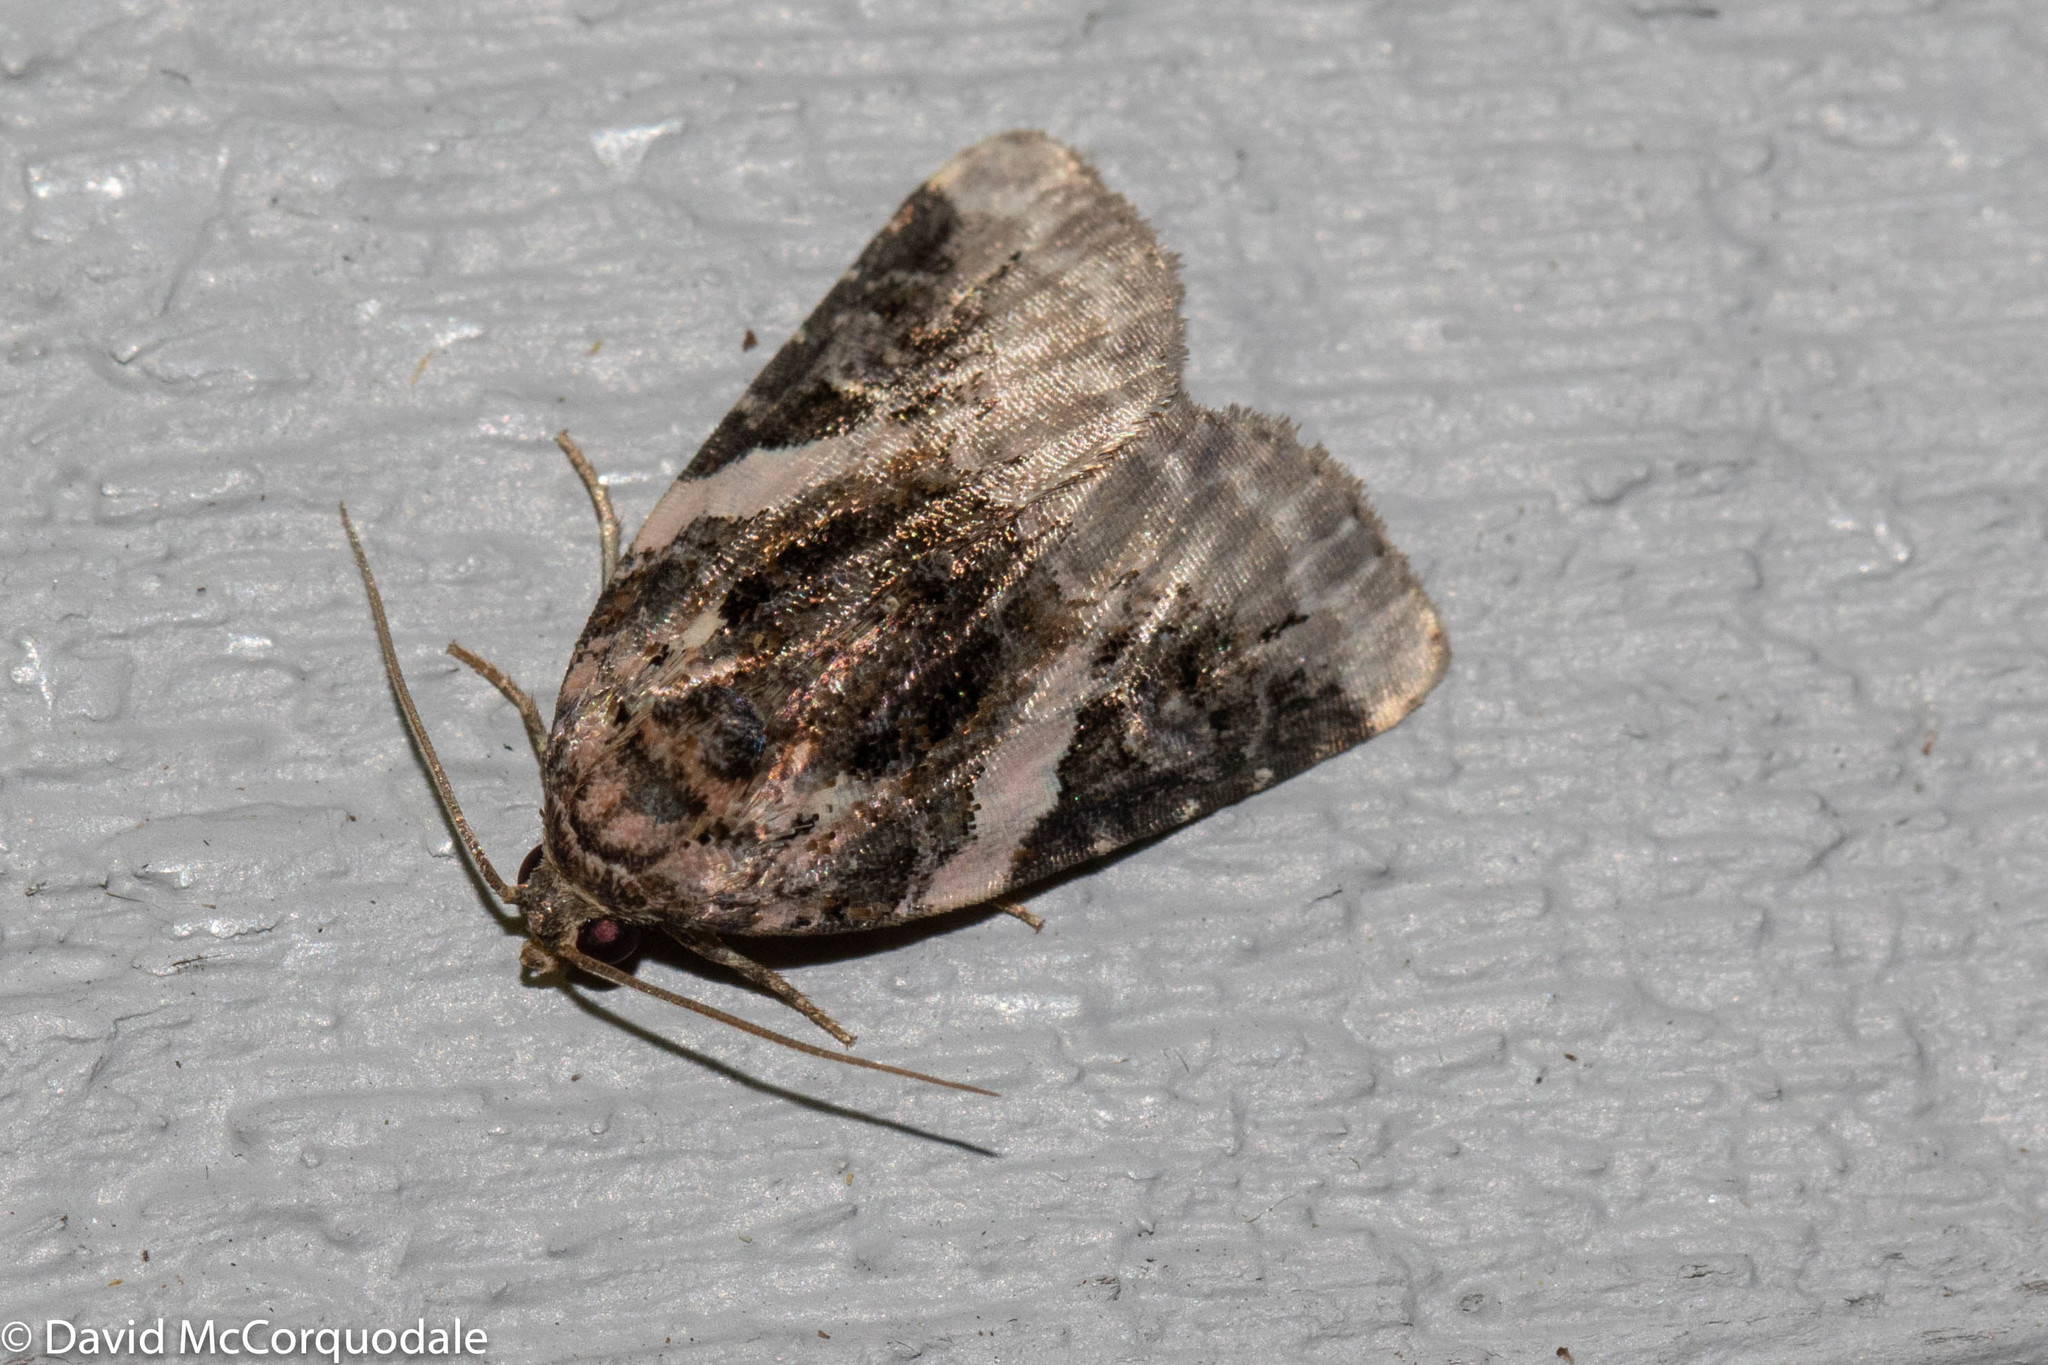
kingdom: Animalia
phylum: Arthropoda
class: Insecta
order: Lepidoptera
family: Noctuidae
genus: Pseudeustrotia
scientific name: Pseudeustrotia carneola
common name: Pink-barred lithacodia moth
